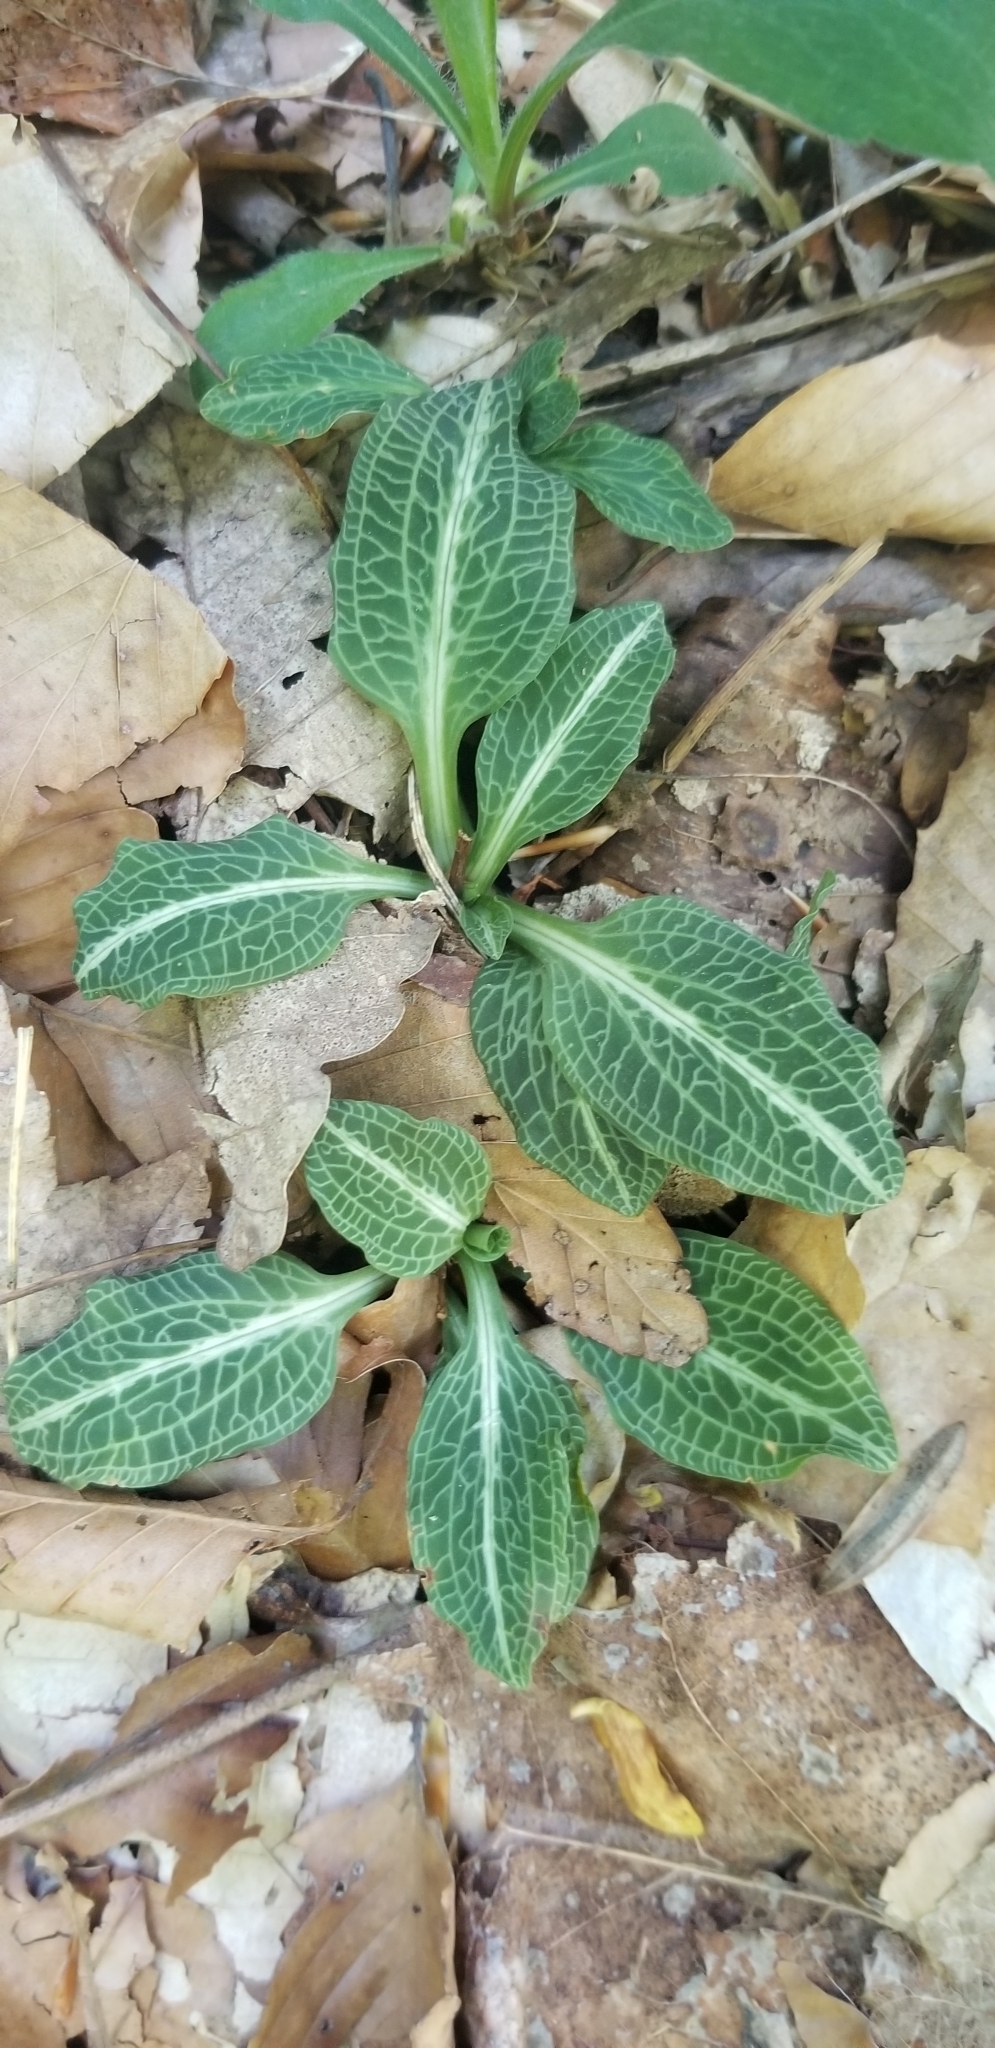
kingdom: Plantae
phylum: Tracheophyta
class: Liliopsida
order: Asparagales
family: Orchidaceae
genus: Goodyera
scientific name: Goodyera pubescens
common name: Downy rattlesnake-plantain
